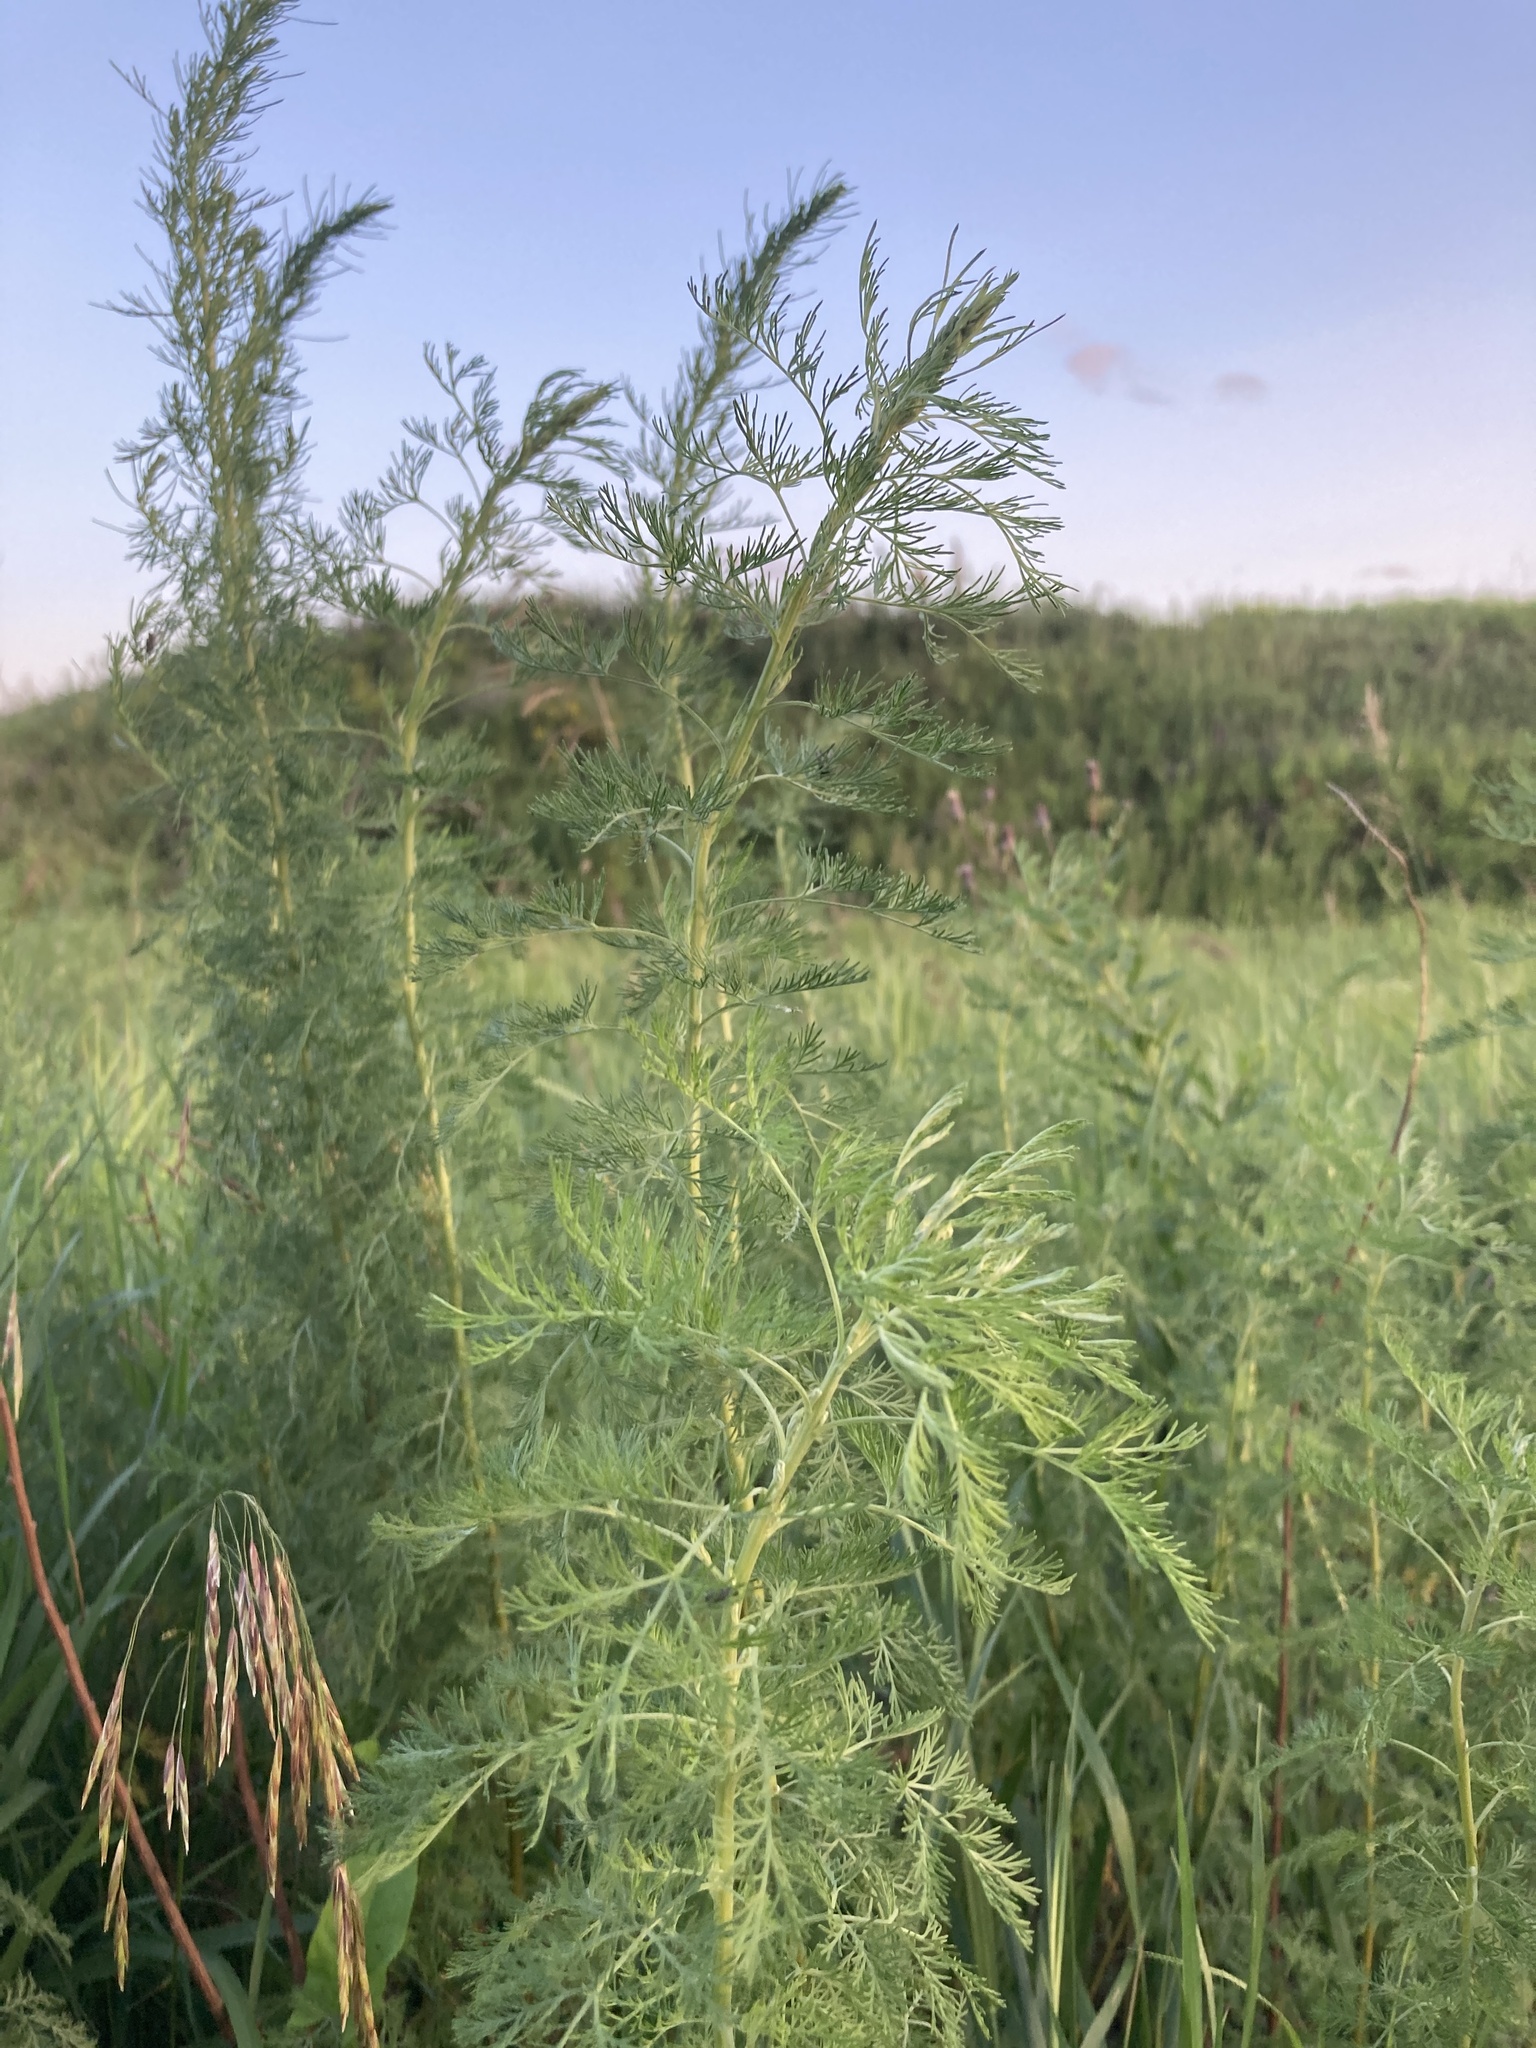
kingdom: Plantae
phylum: Tracheophyta
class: Magnoliopsida
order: Asterales
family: Asteraceae
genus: Artemisia
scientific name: Artemisia abrotanum
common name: Southernwood
